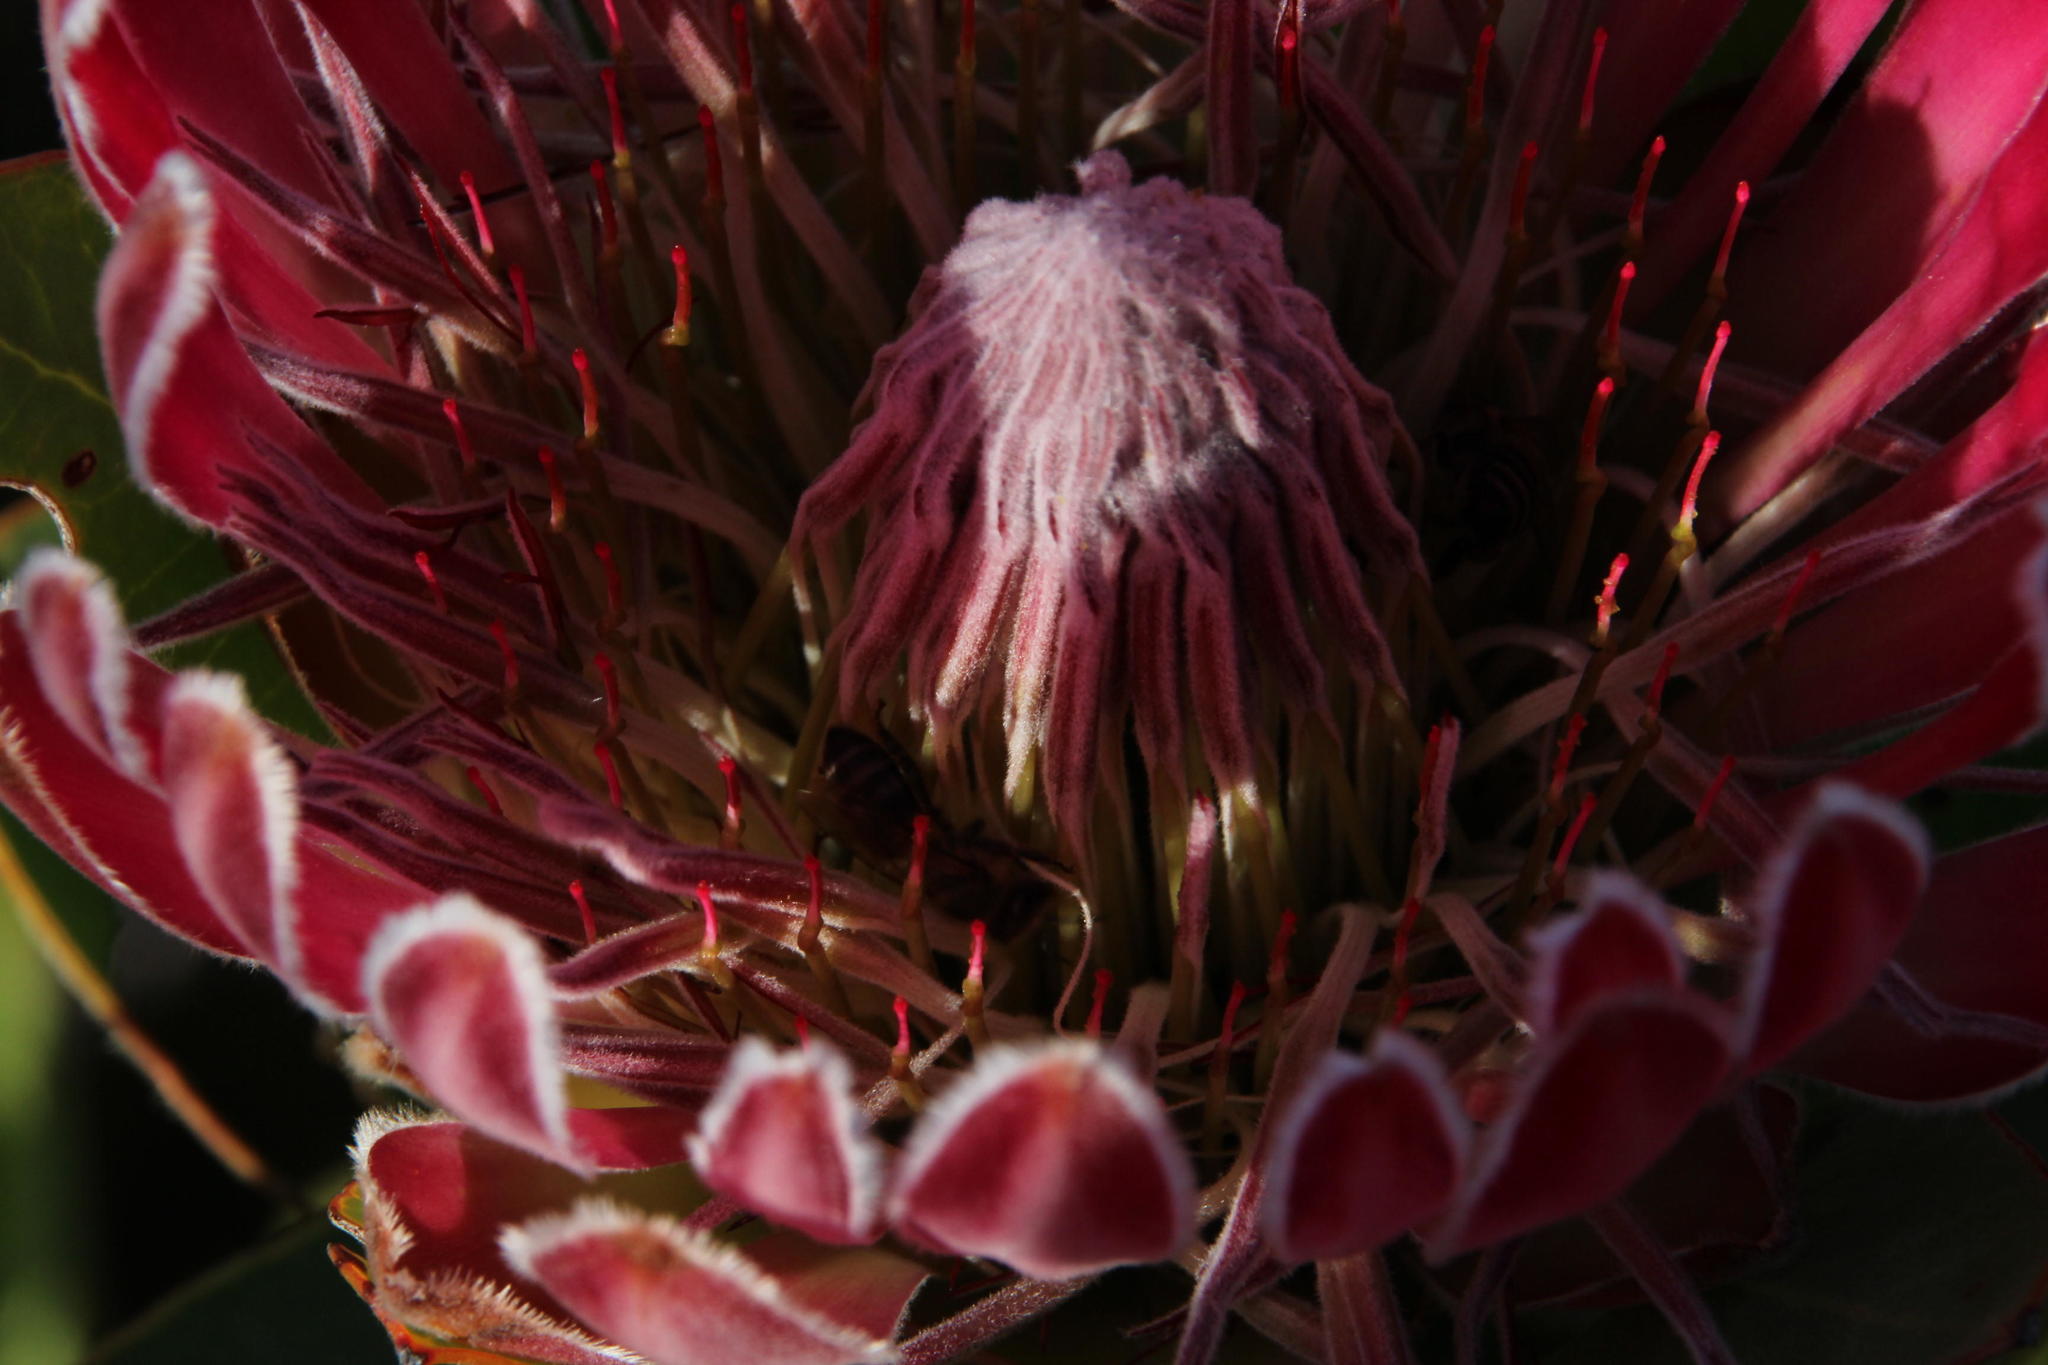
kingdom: Animalia
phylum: Arthropoda
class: Insecta
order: Hymenoptera
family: Apidae
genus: Apis
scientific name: Apis mellifera
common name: Honey bee
